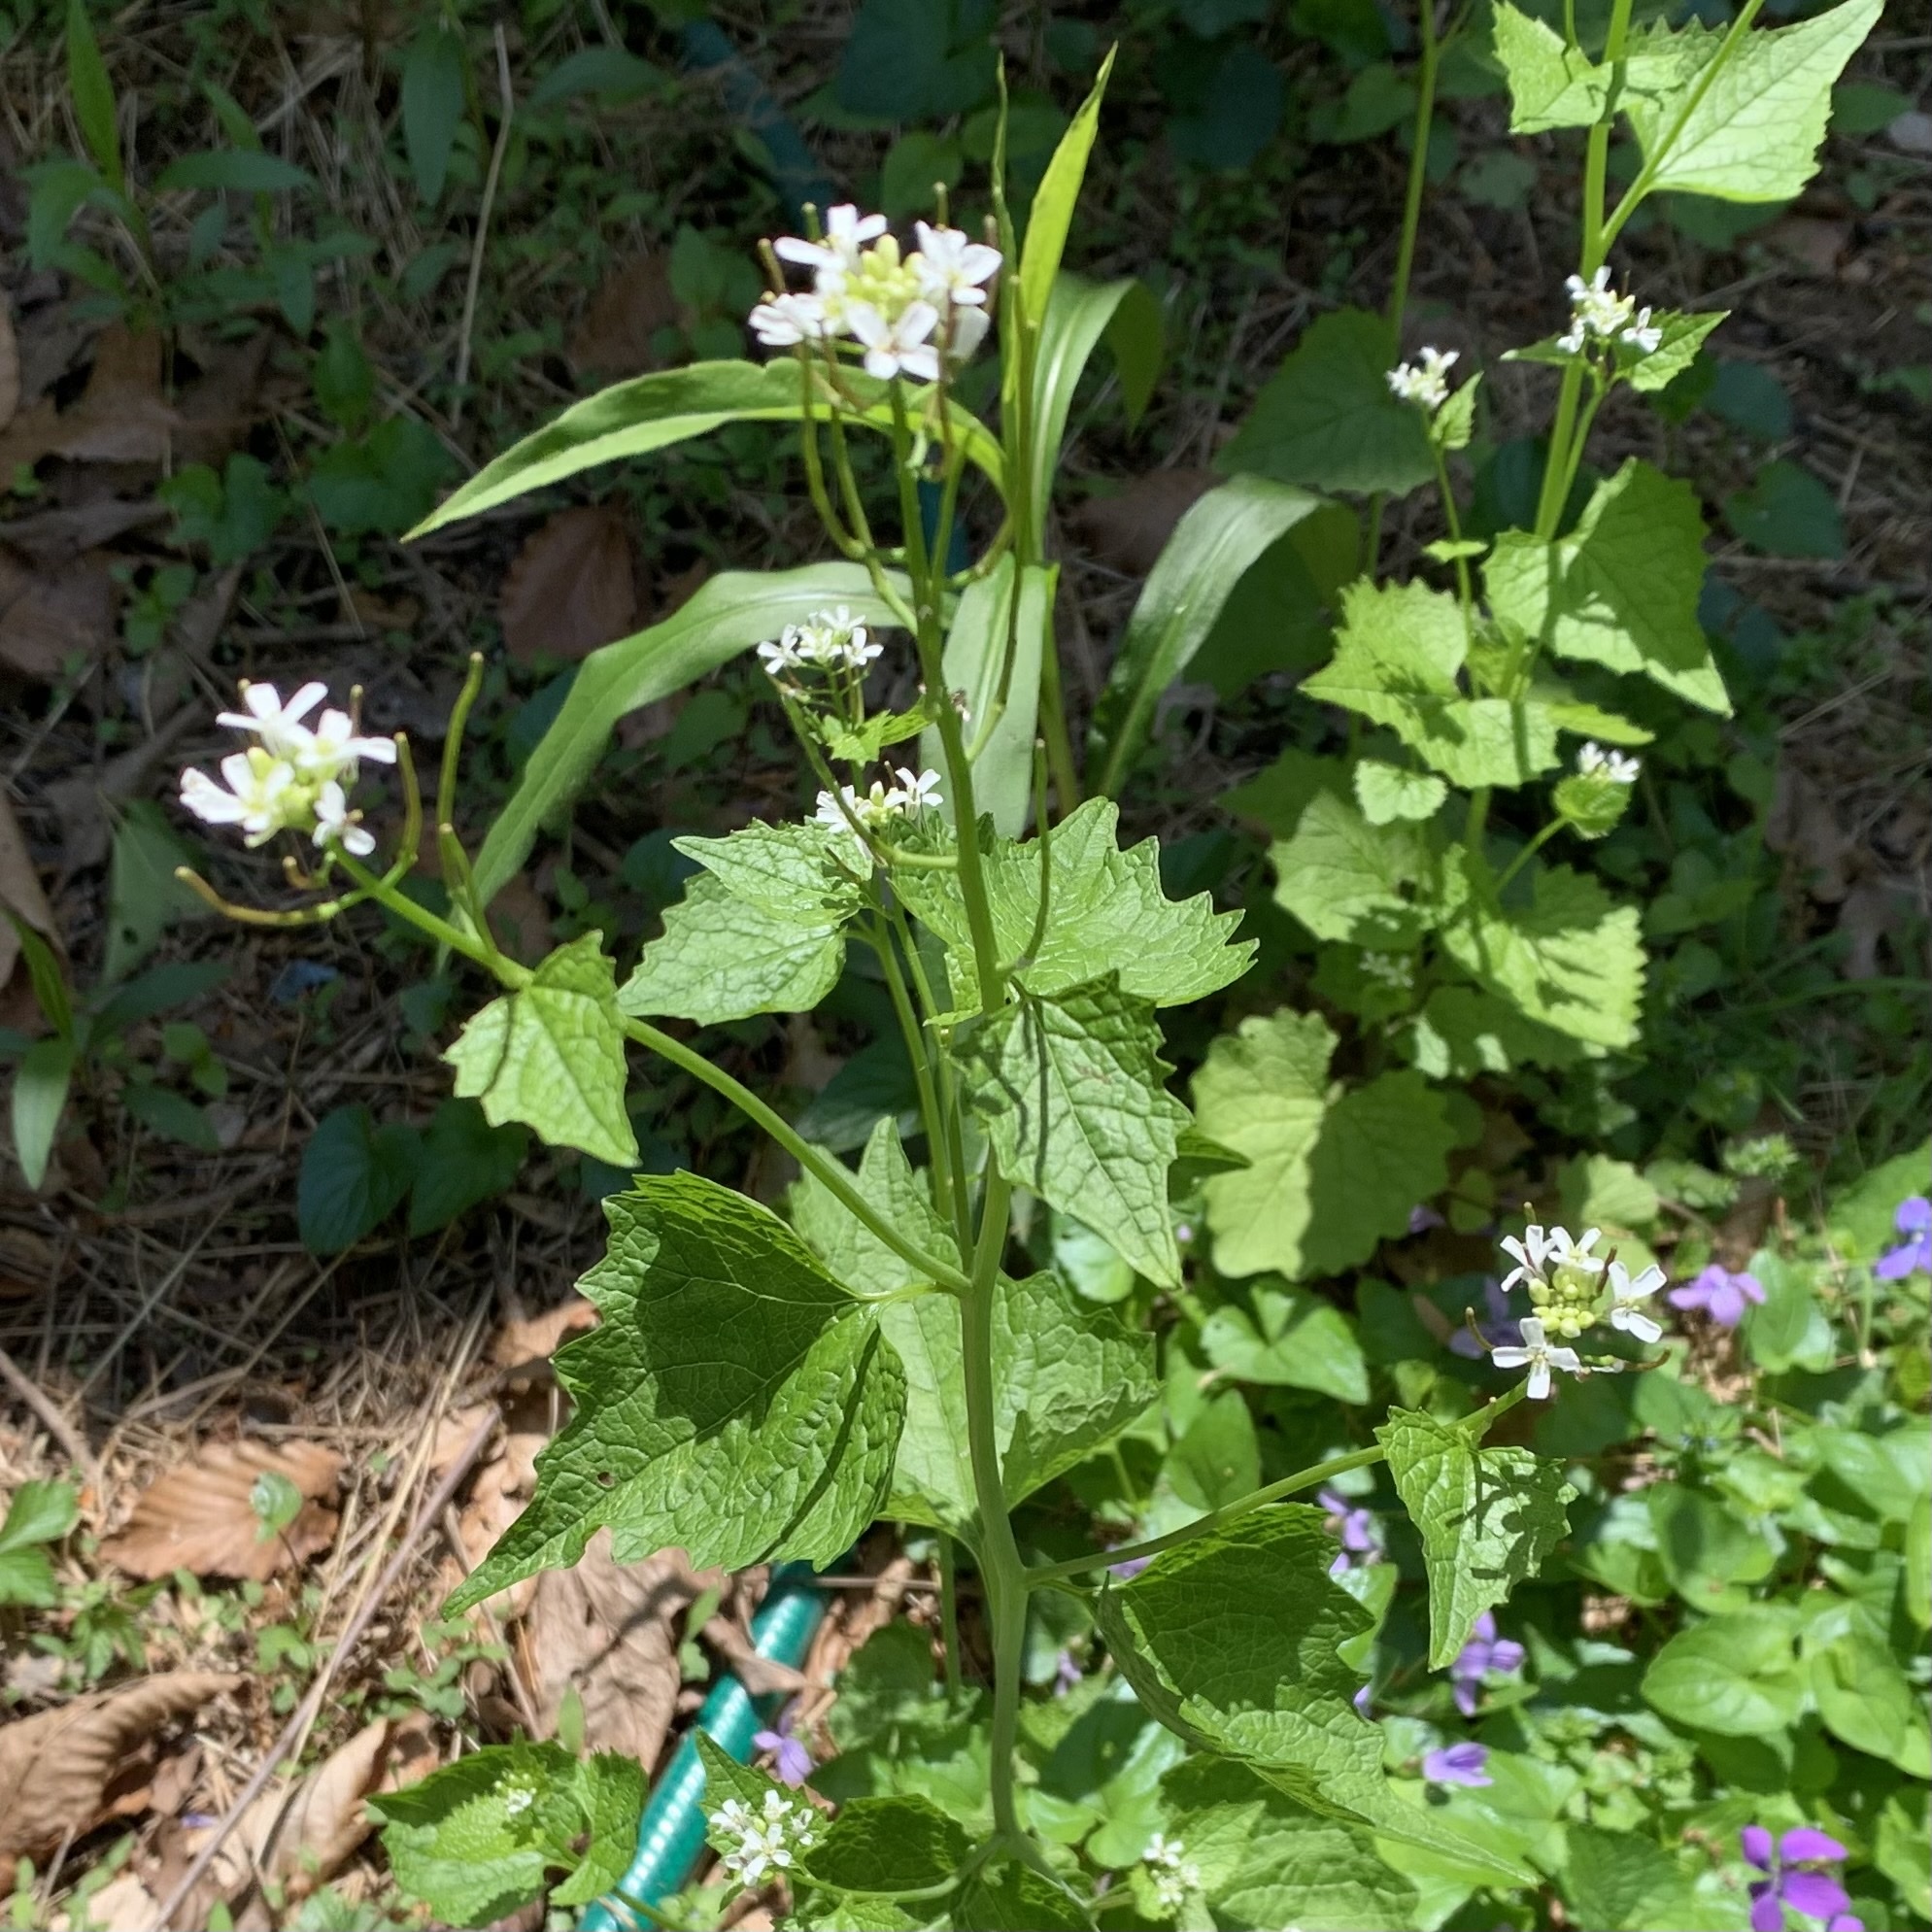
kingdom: Plantae
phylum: Tracheophyta
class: Magnoliopsida
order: Brassicales
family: Brassicaceae
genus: Alliaria
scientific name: Alliaria petiolata
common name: Garlic mustard
